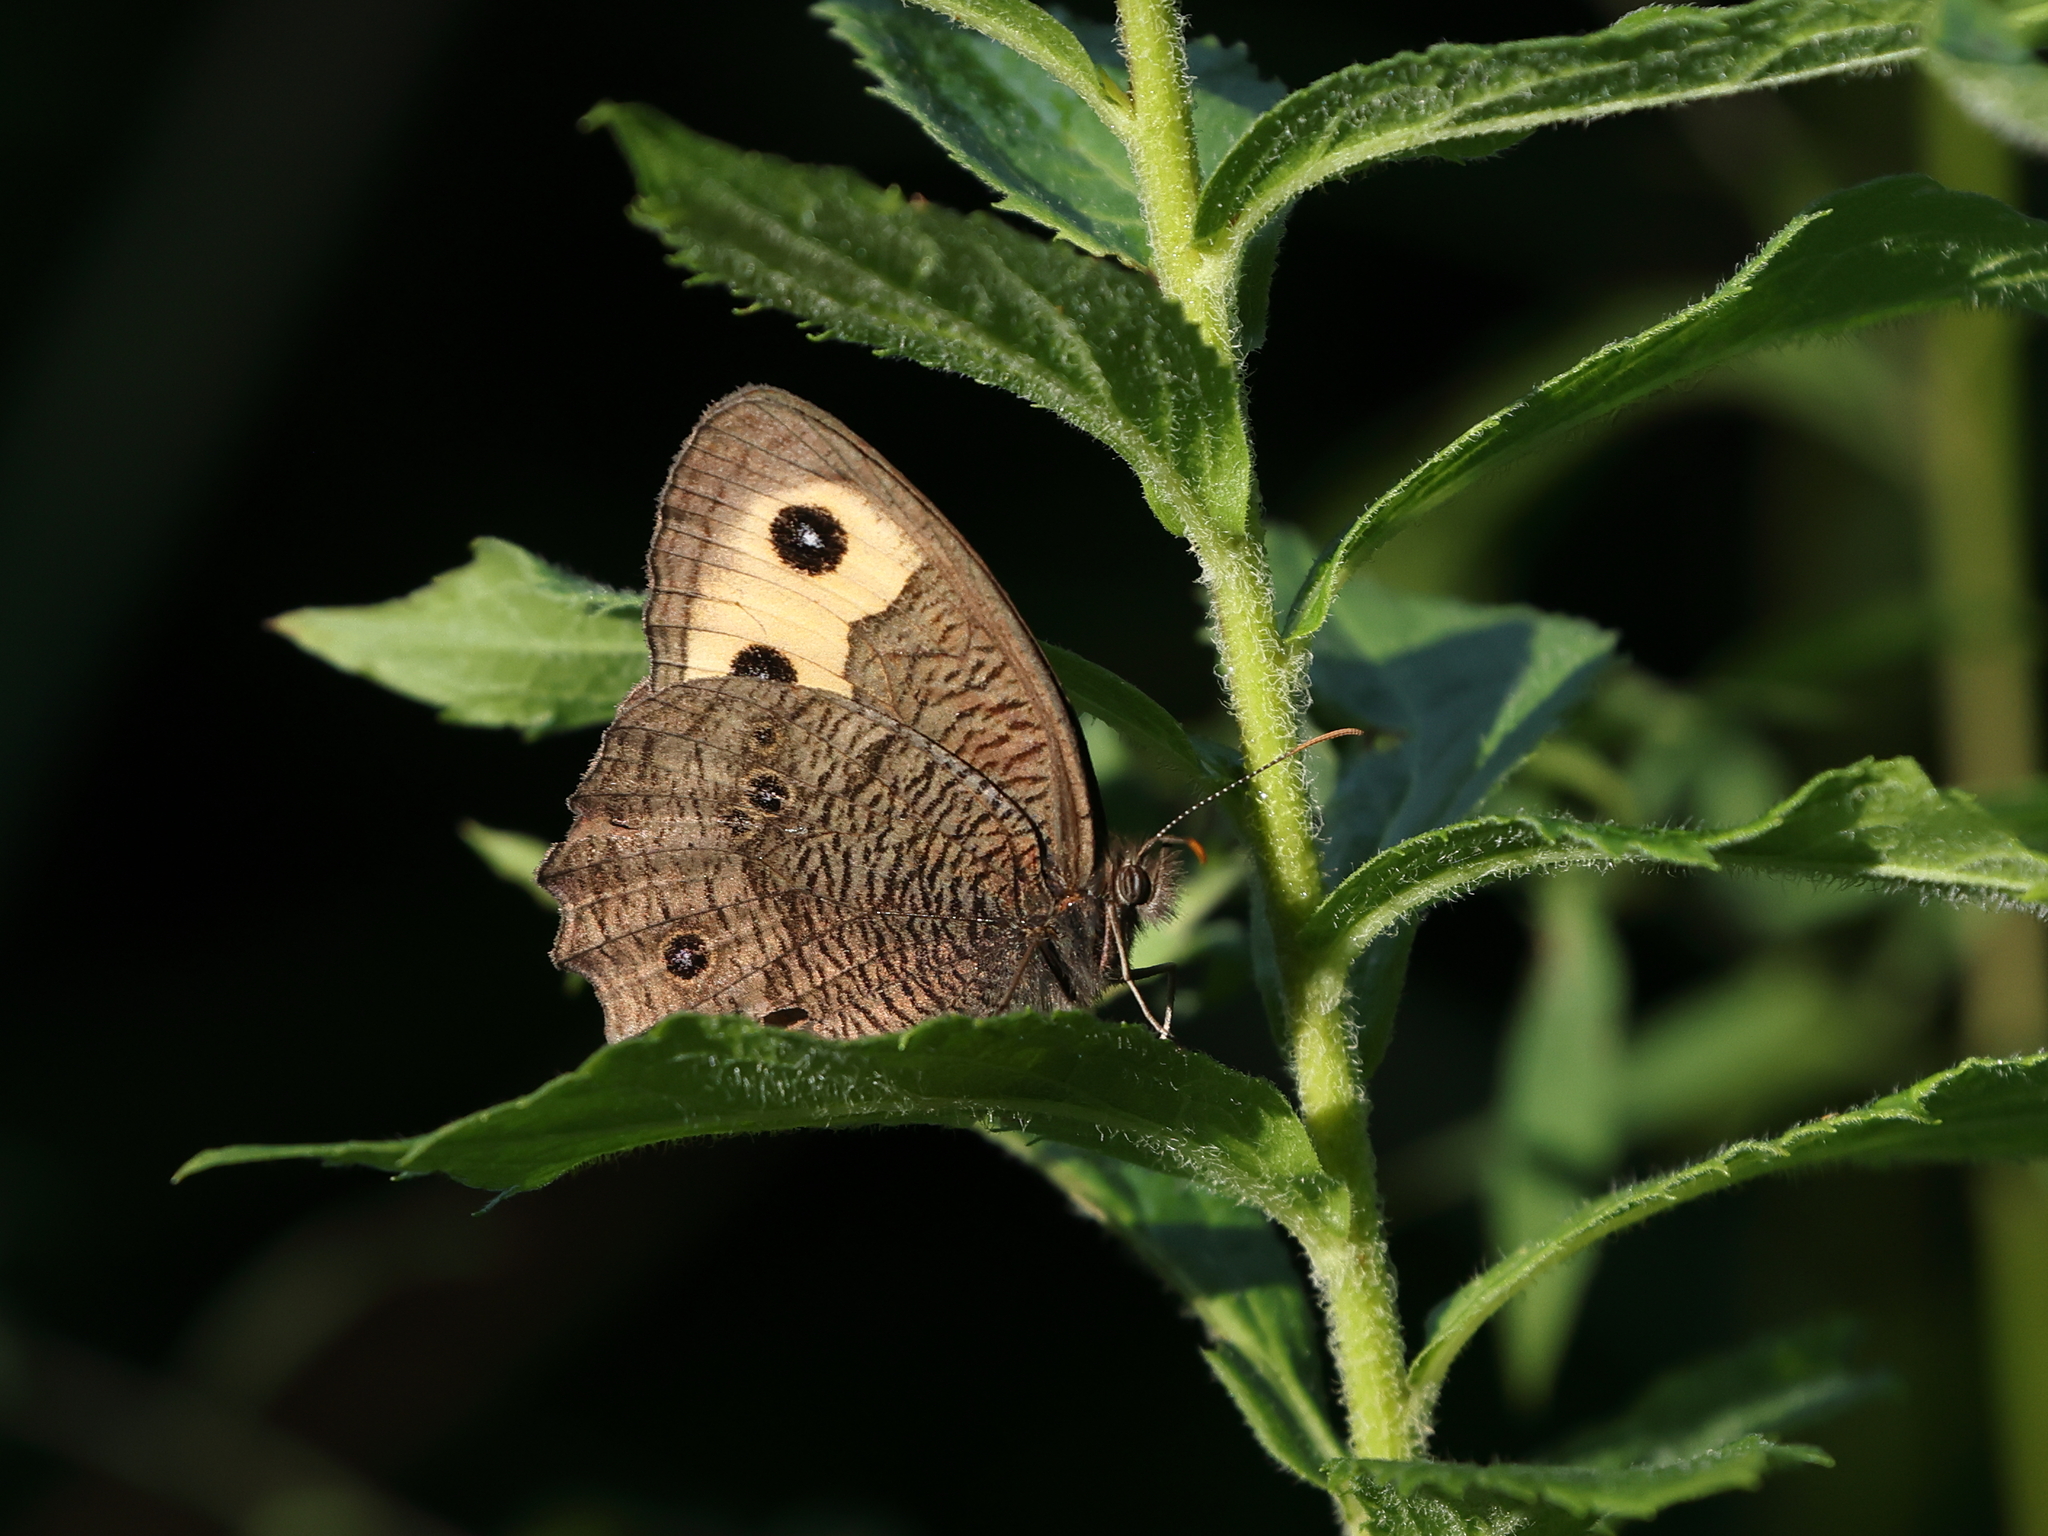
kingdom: Animalia
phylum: Arthropoda
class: Insecta
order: Lepidoptera
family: Nymphalidae
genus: Cercyonis
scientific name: Cercyonis pegala
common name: Common wood-nymph
